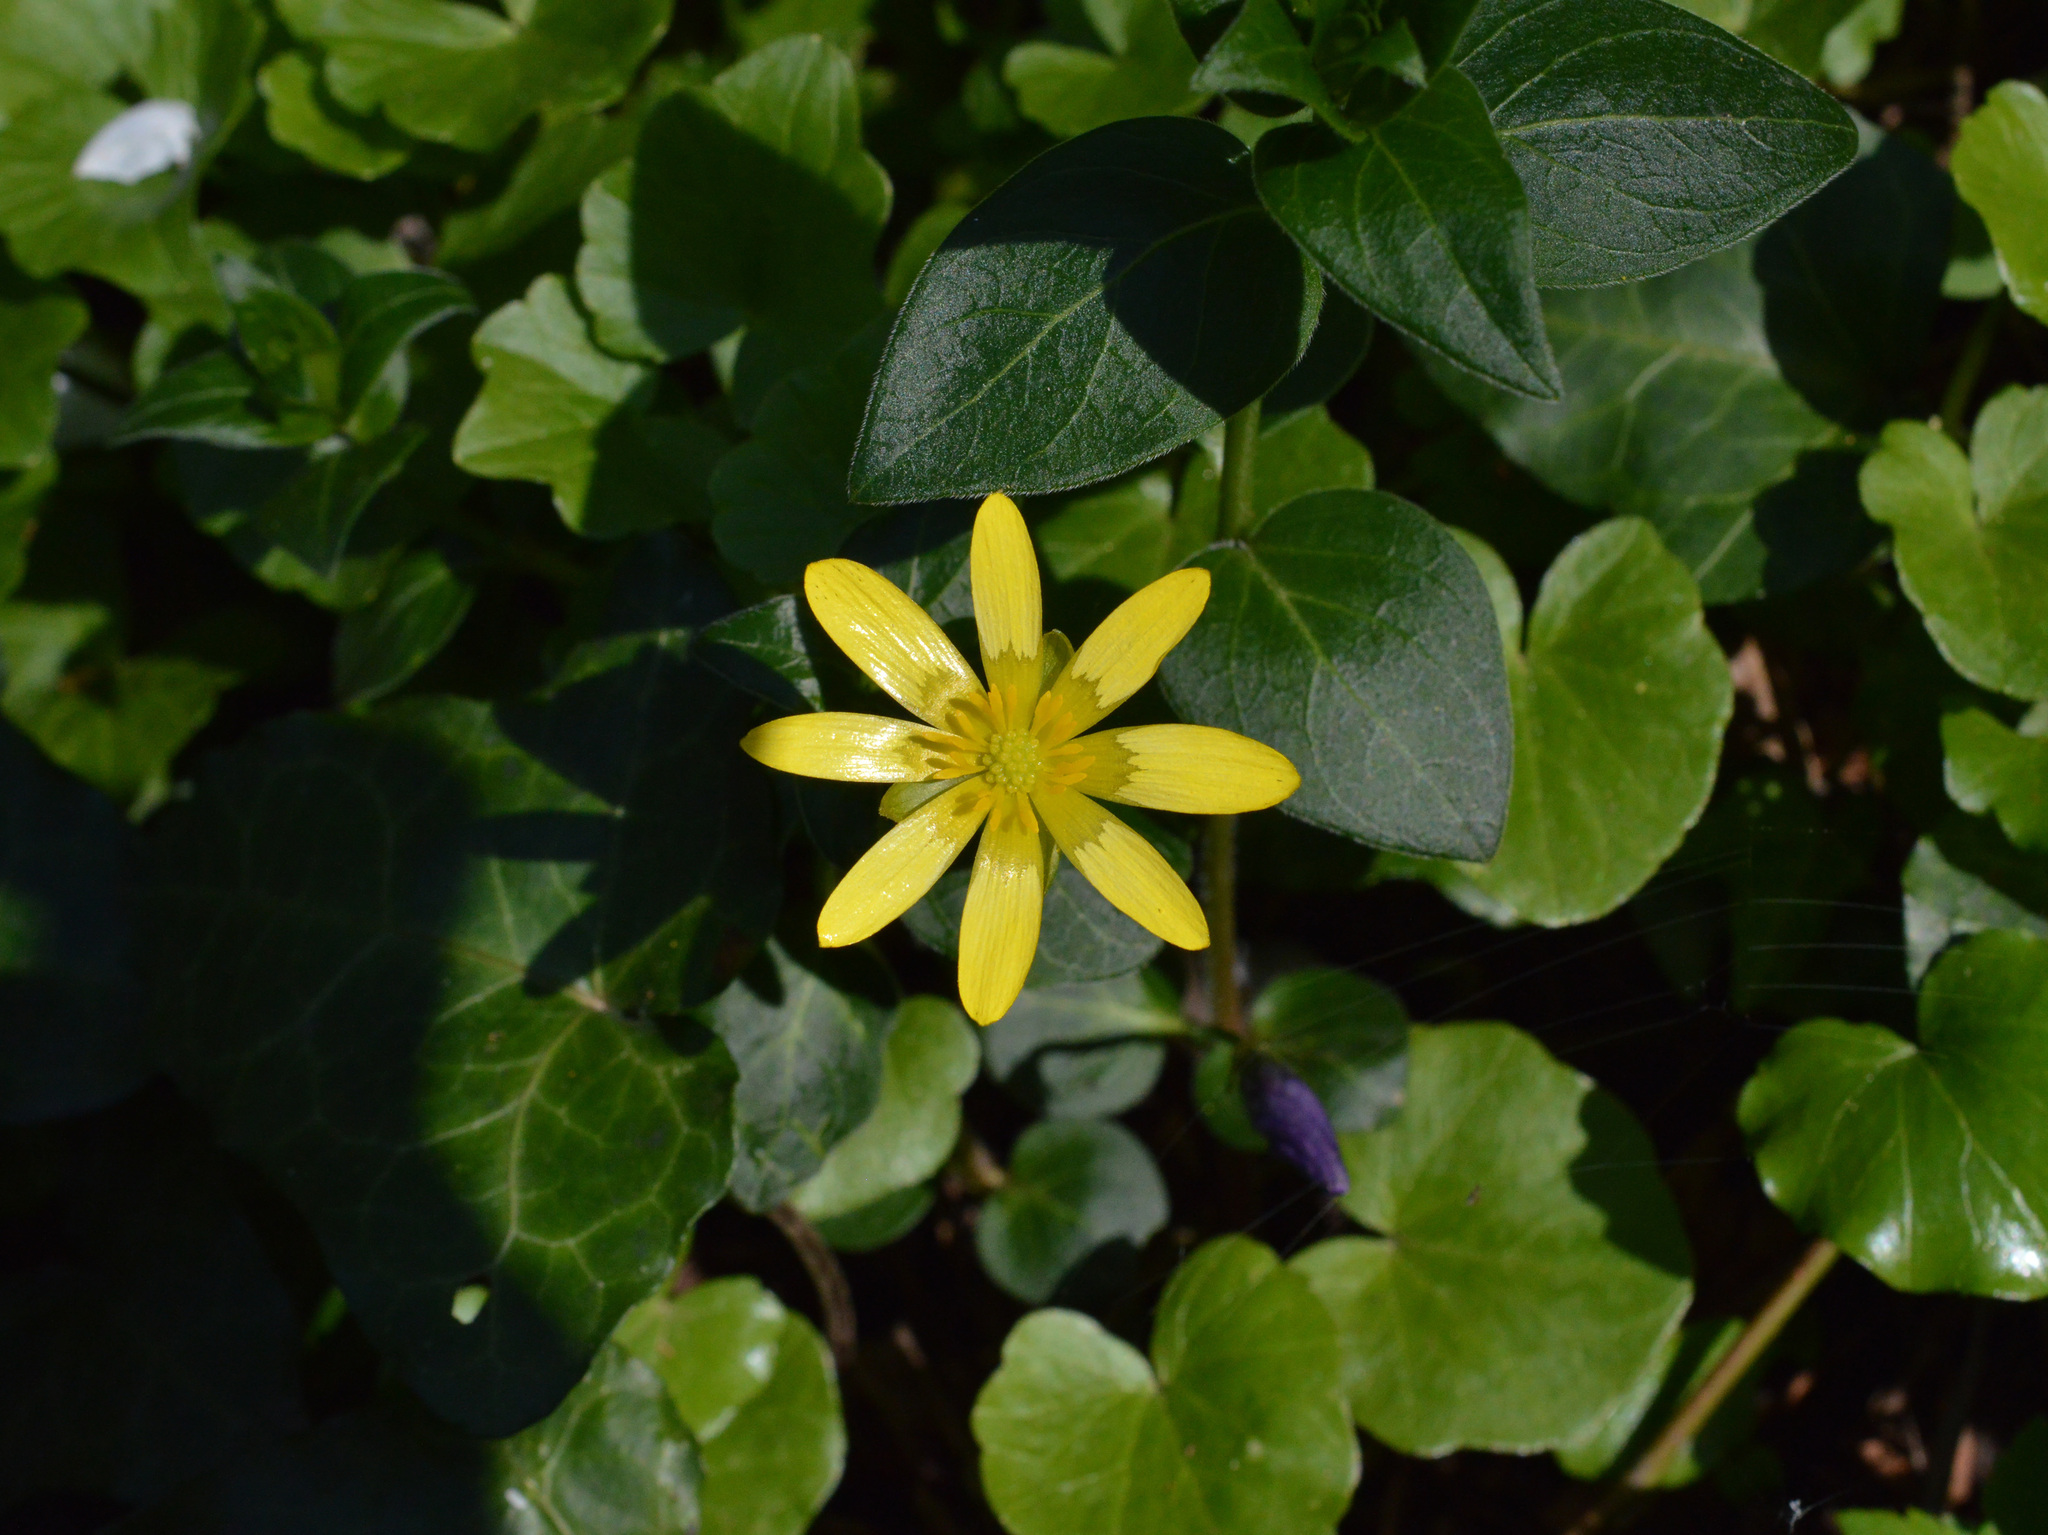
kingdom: Plantae
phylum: Tracheophyta
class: Magnoliopsida
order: Ranunculales
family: Ranunculaceae
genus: Ficaria
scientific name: Ficaria verna
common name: Lesser celandine
